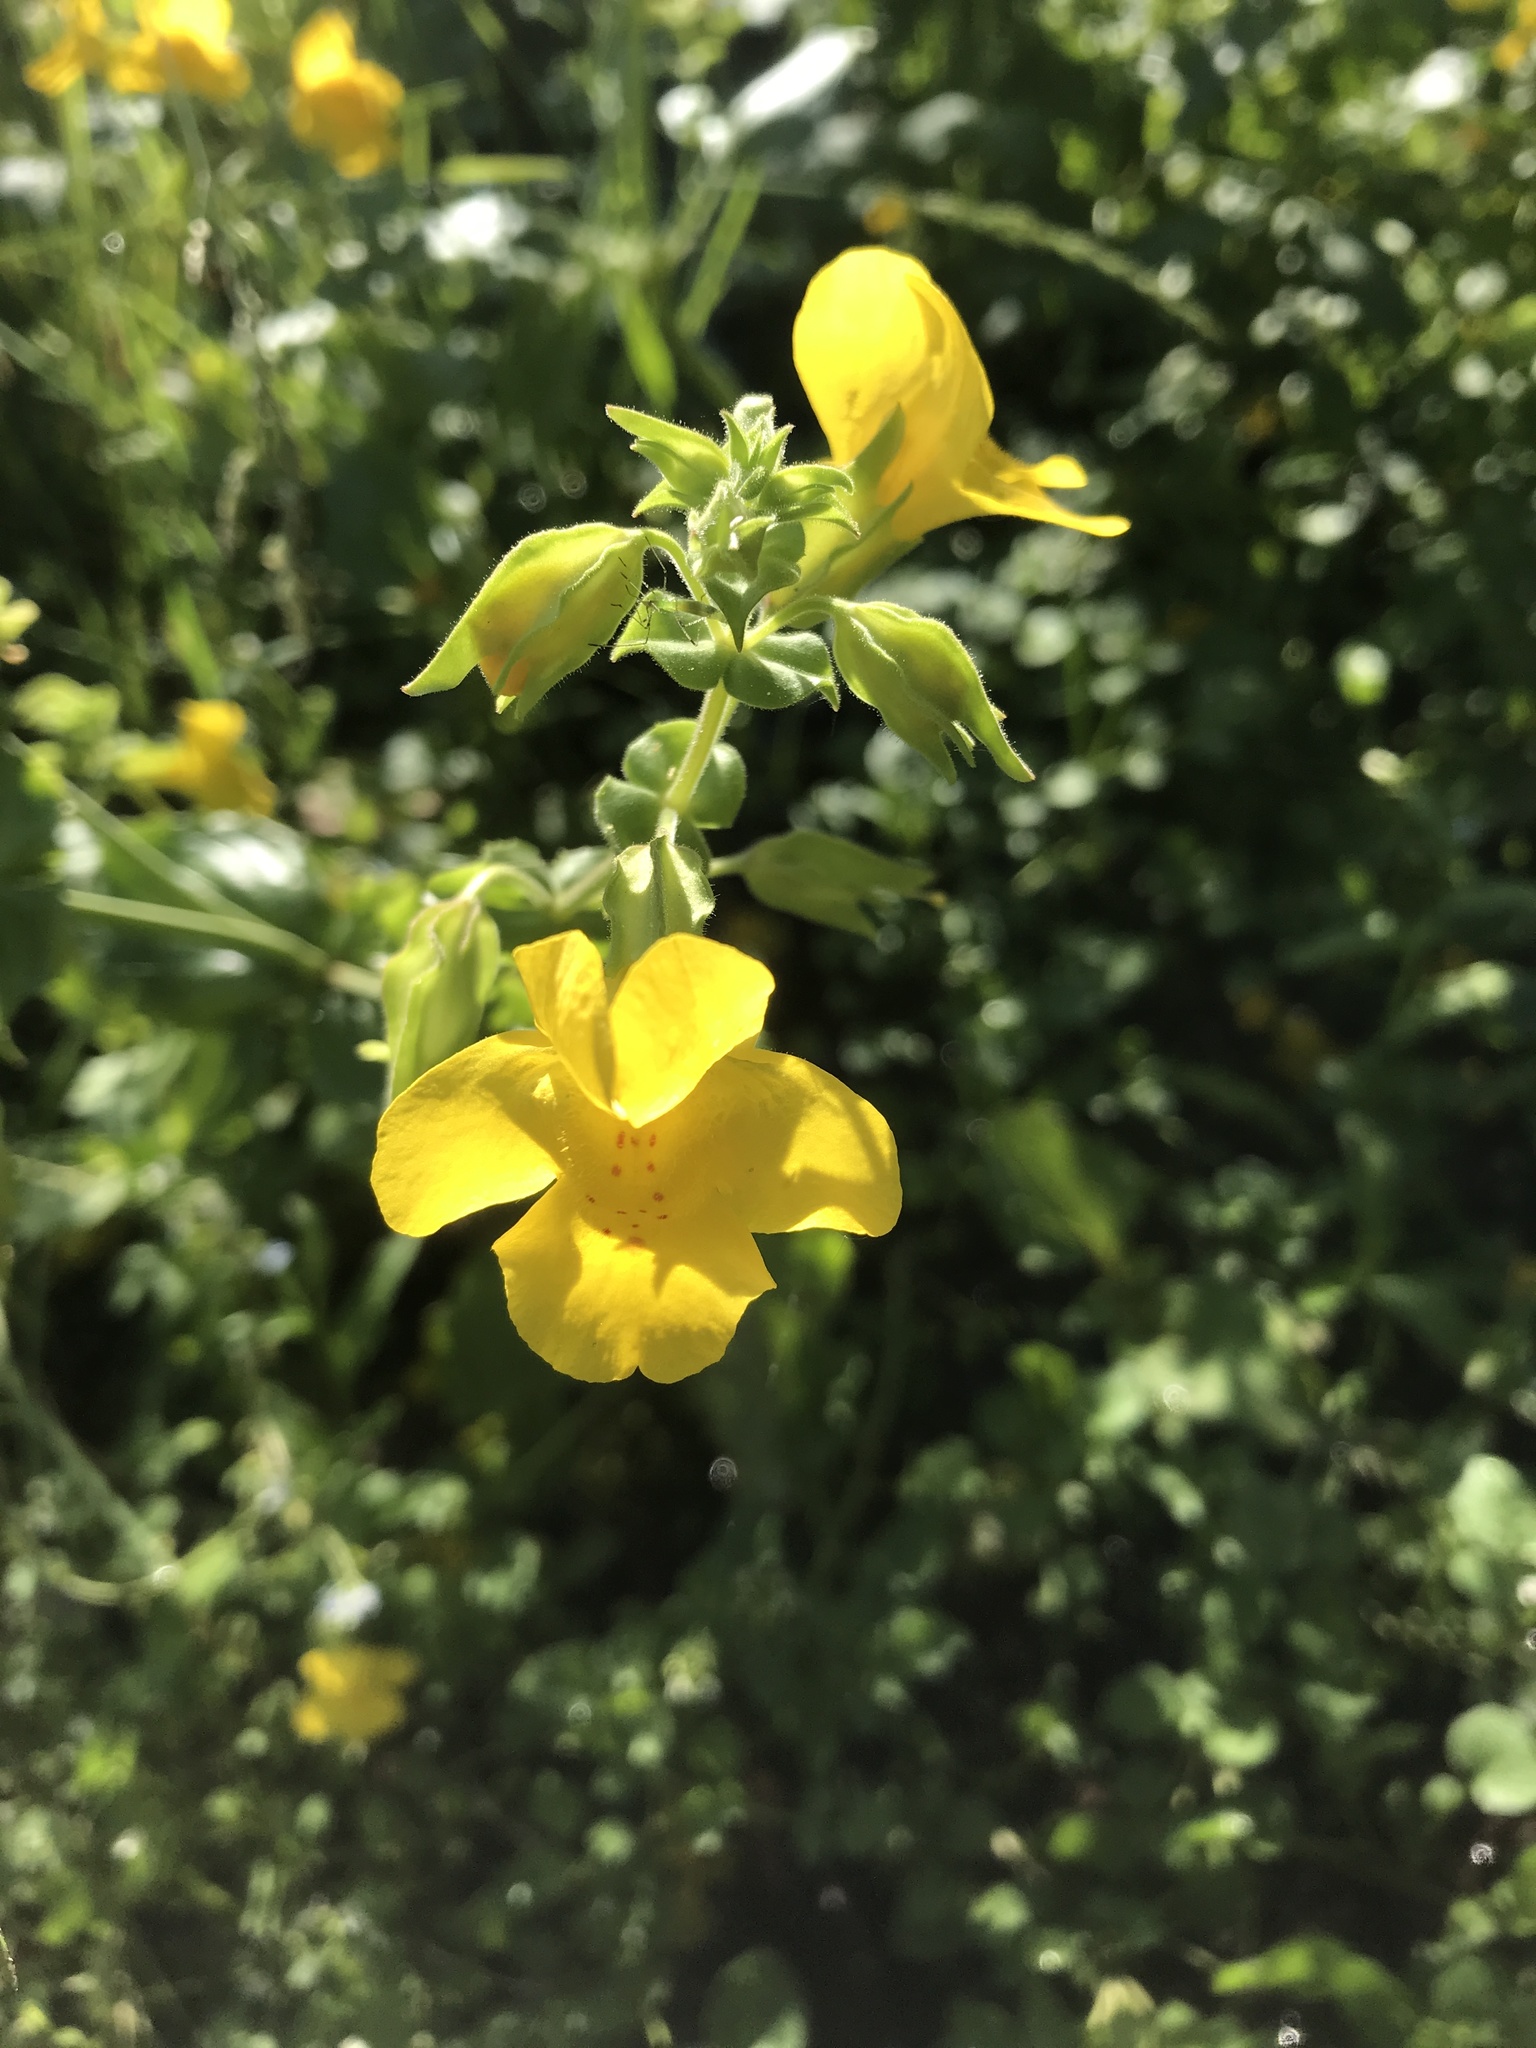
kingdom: Plantae
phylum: Tracheophyta
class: Magnoliopsida
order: Lamiales
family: Phrymaceae
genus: Erythranthe
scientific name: Erythranthe guttata
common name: Monkeyflower
